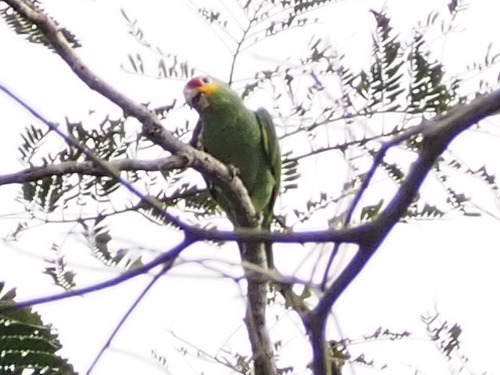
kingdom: Animalia
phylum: Chordata
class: Aves
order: Psittaciformes
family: Psittacidae
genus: Amazona
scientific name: Amazona autumnalis
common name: Red-lored amazon
